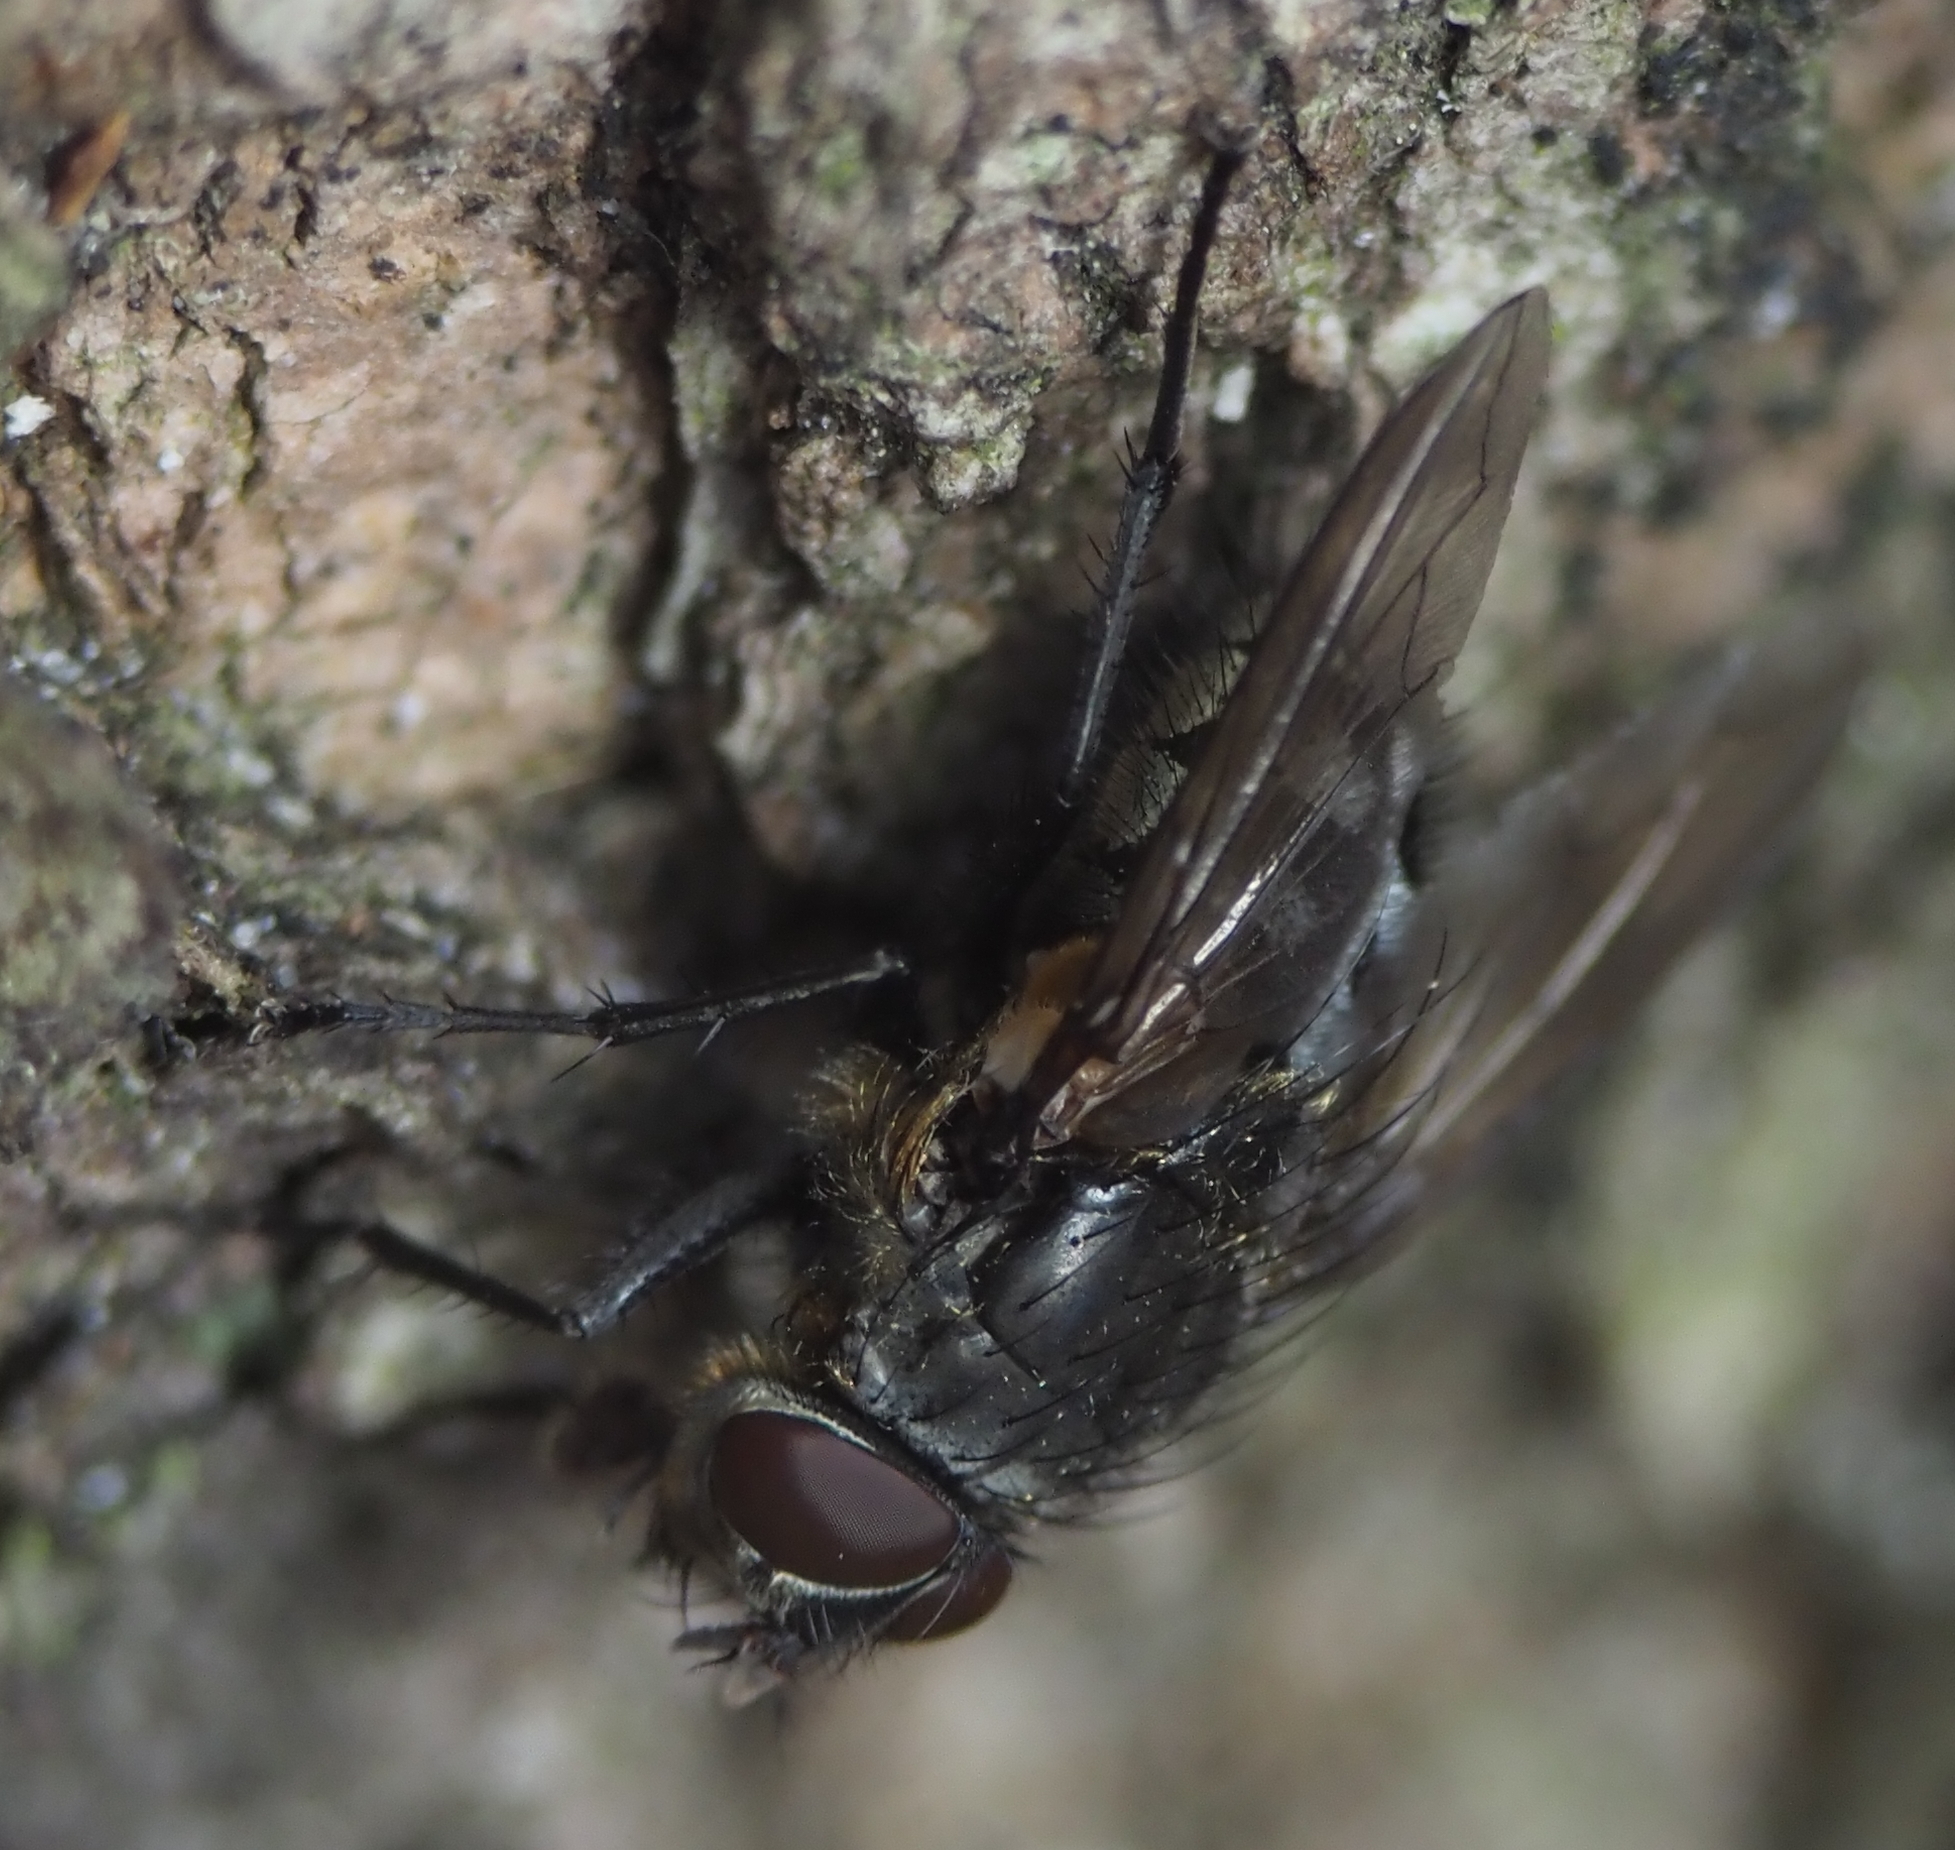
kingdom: Animalia
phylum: Arthropoda
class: Insecta
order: Diptera
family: Polleniidae
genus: Pollenia
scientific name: Pollenia
